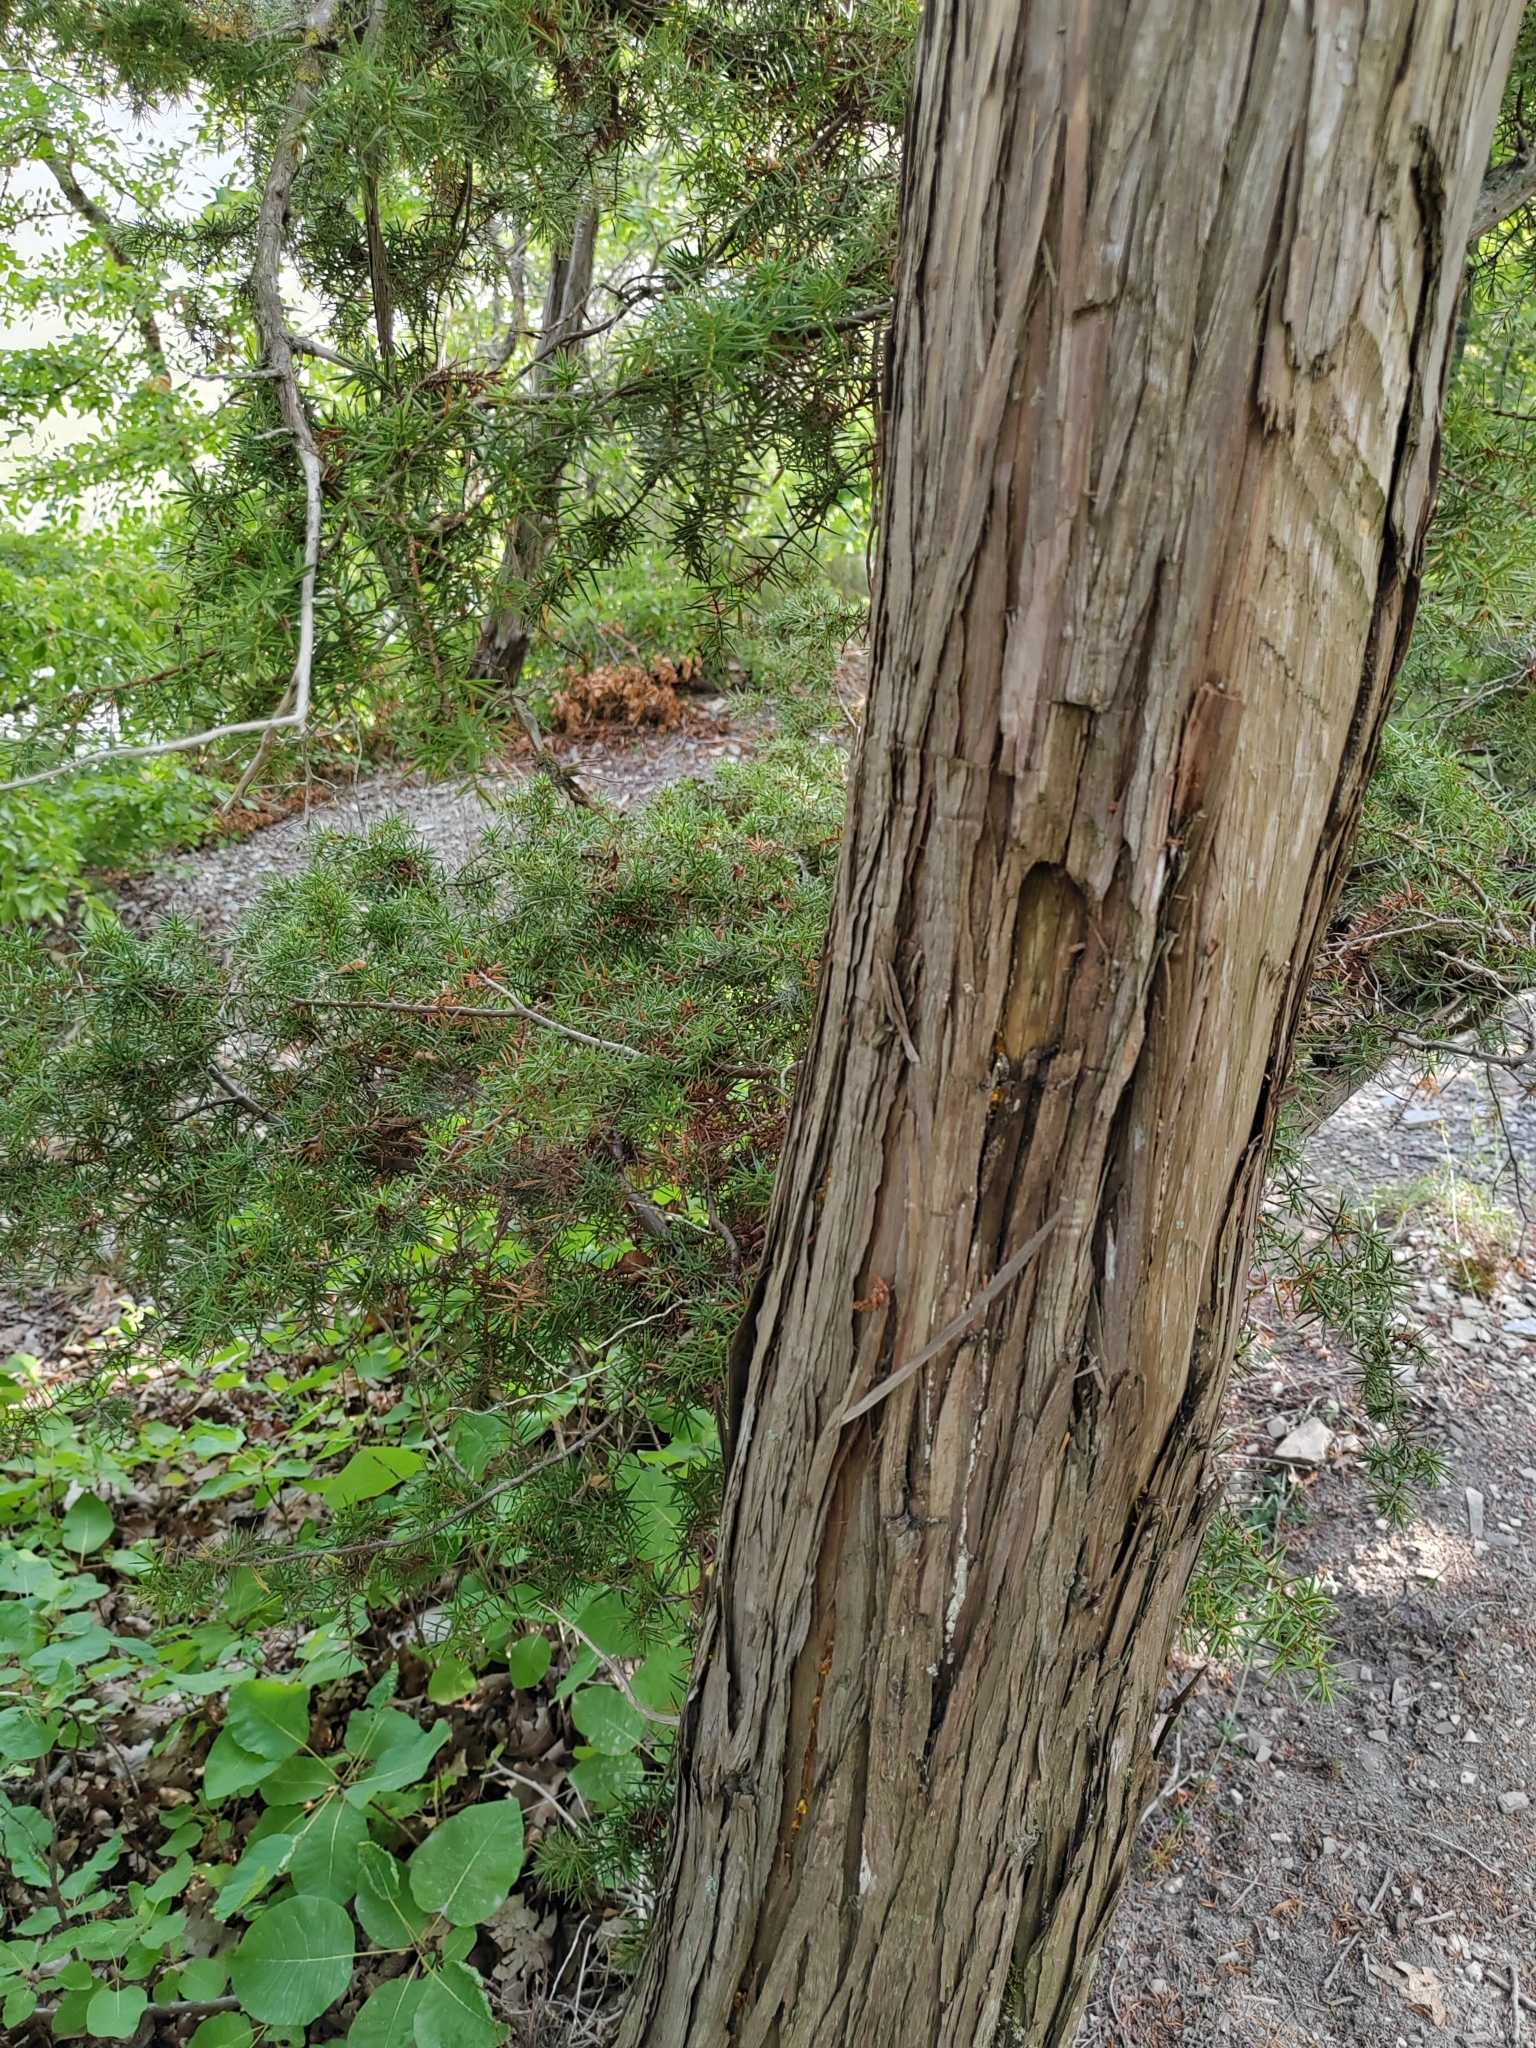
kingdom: Plantae
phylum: Tracheophyta
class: Pinopsida
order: Pinales
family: Cupressaceae
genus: Juniperus
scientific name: Juniperus oxycedrus
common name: Prickly juniper
